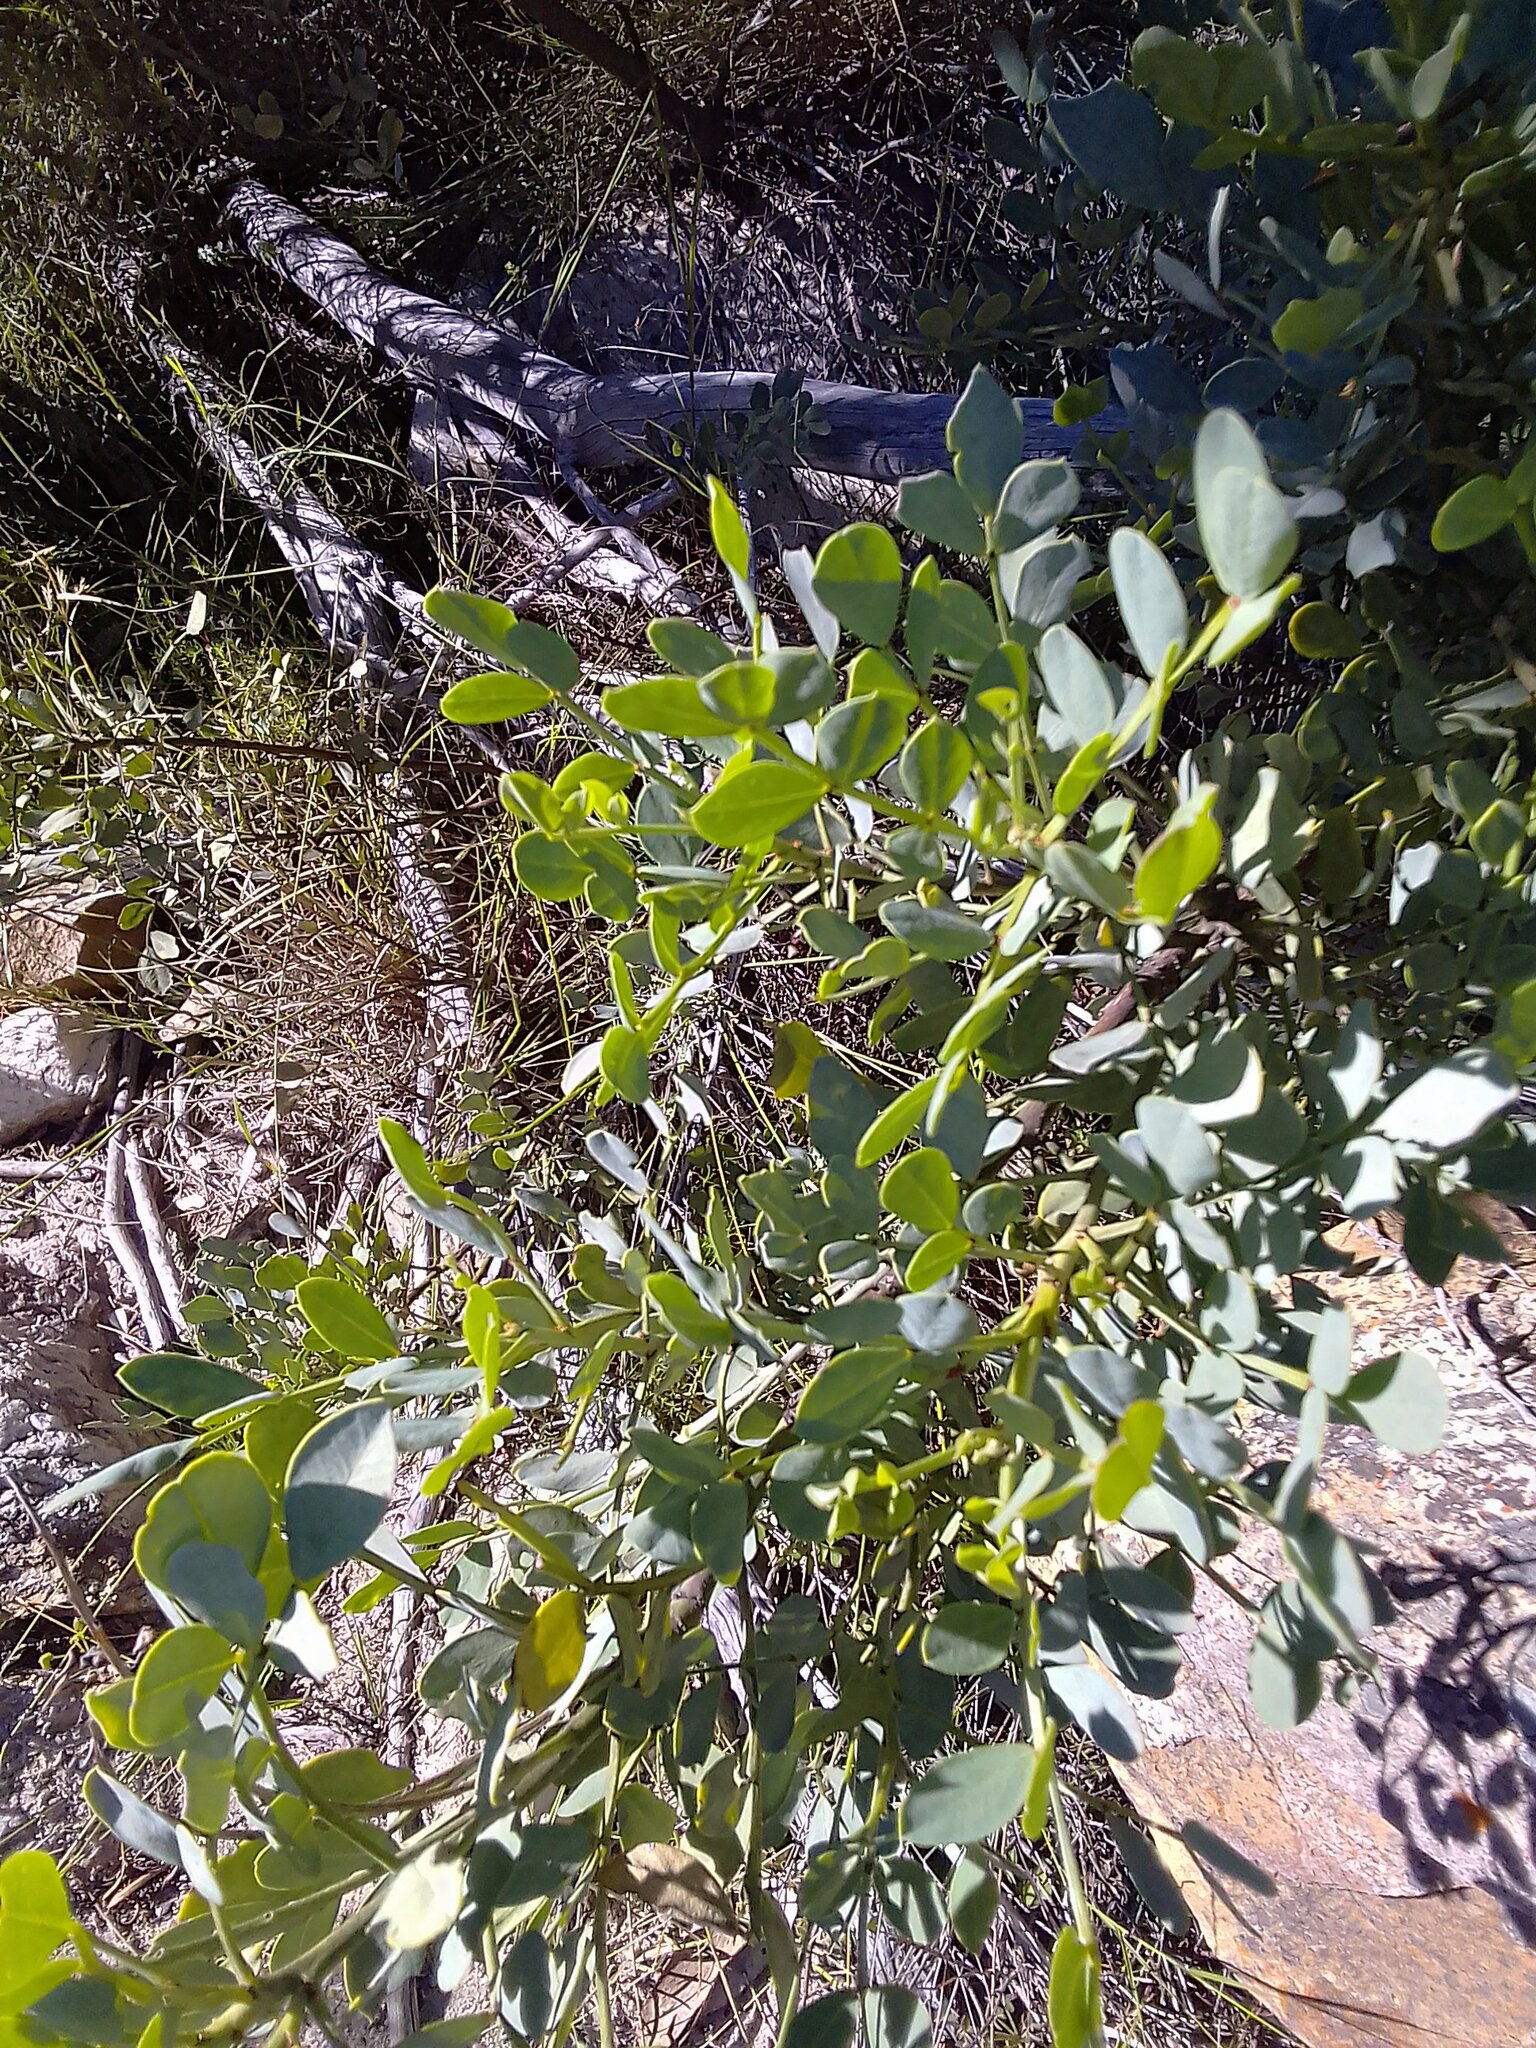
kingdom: Plantae
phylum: Tracheophyta
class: Magnoliopsida
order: Fabales
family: Fabaceae
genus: Indigofera
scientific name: Indigofera frutescens
